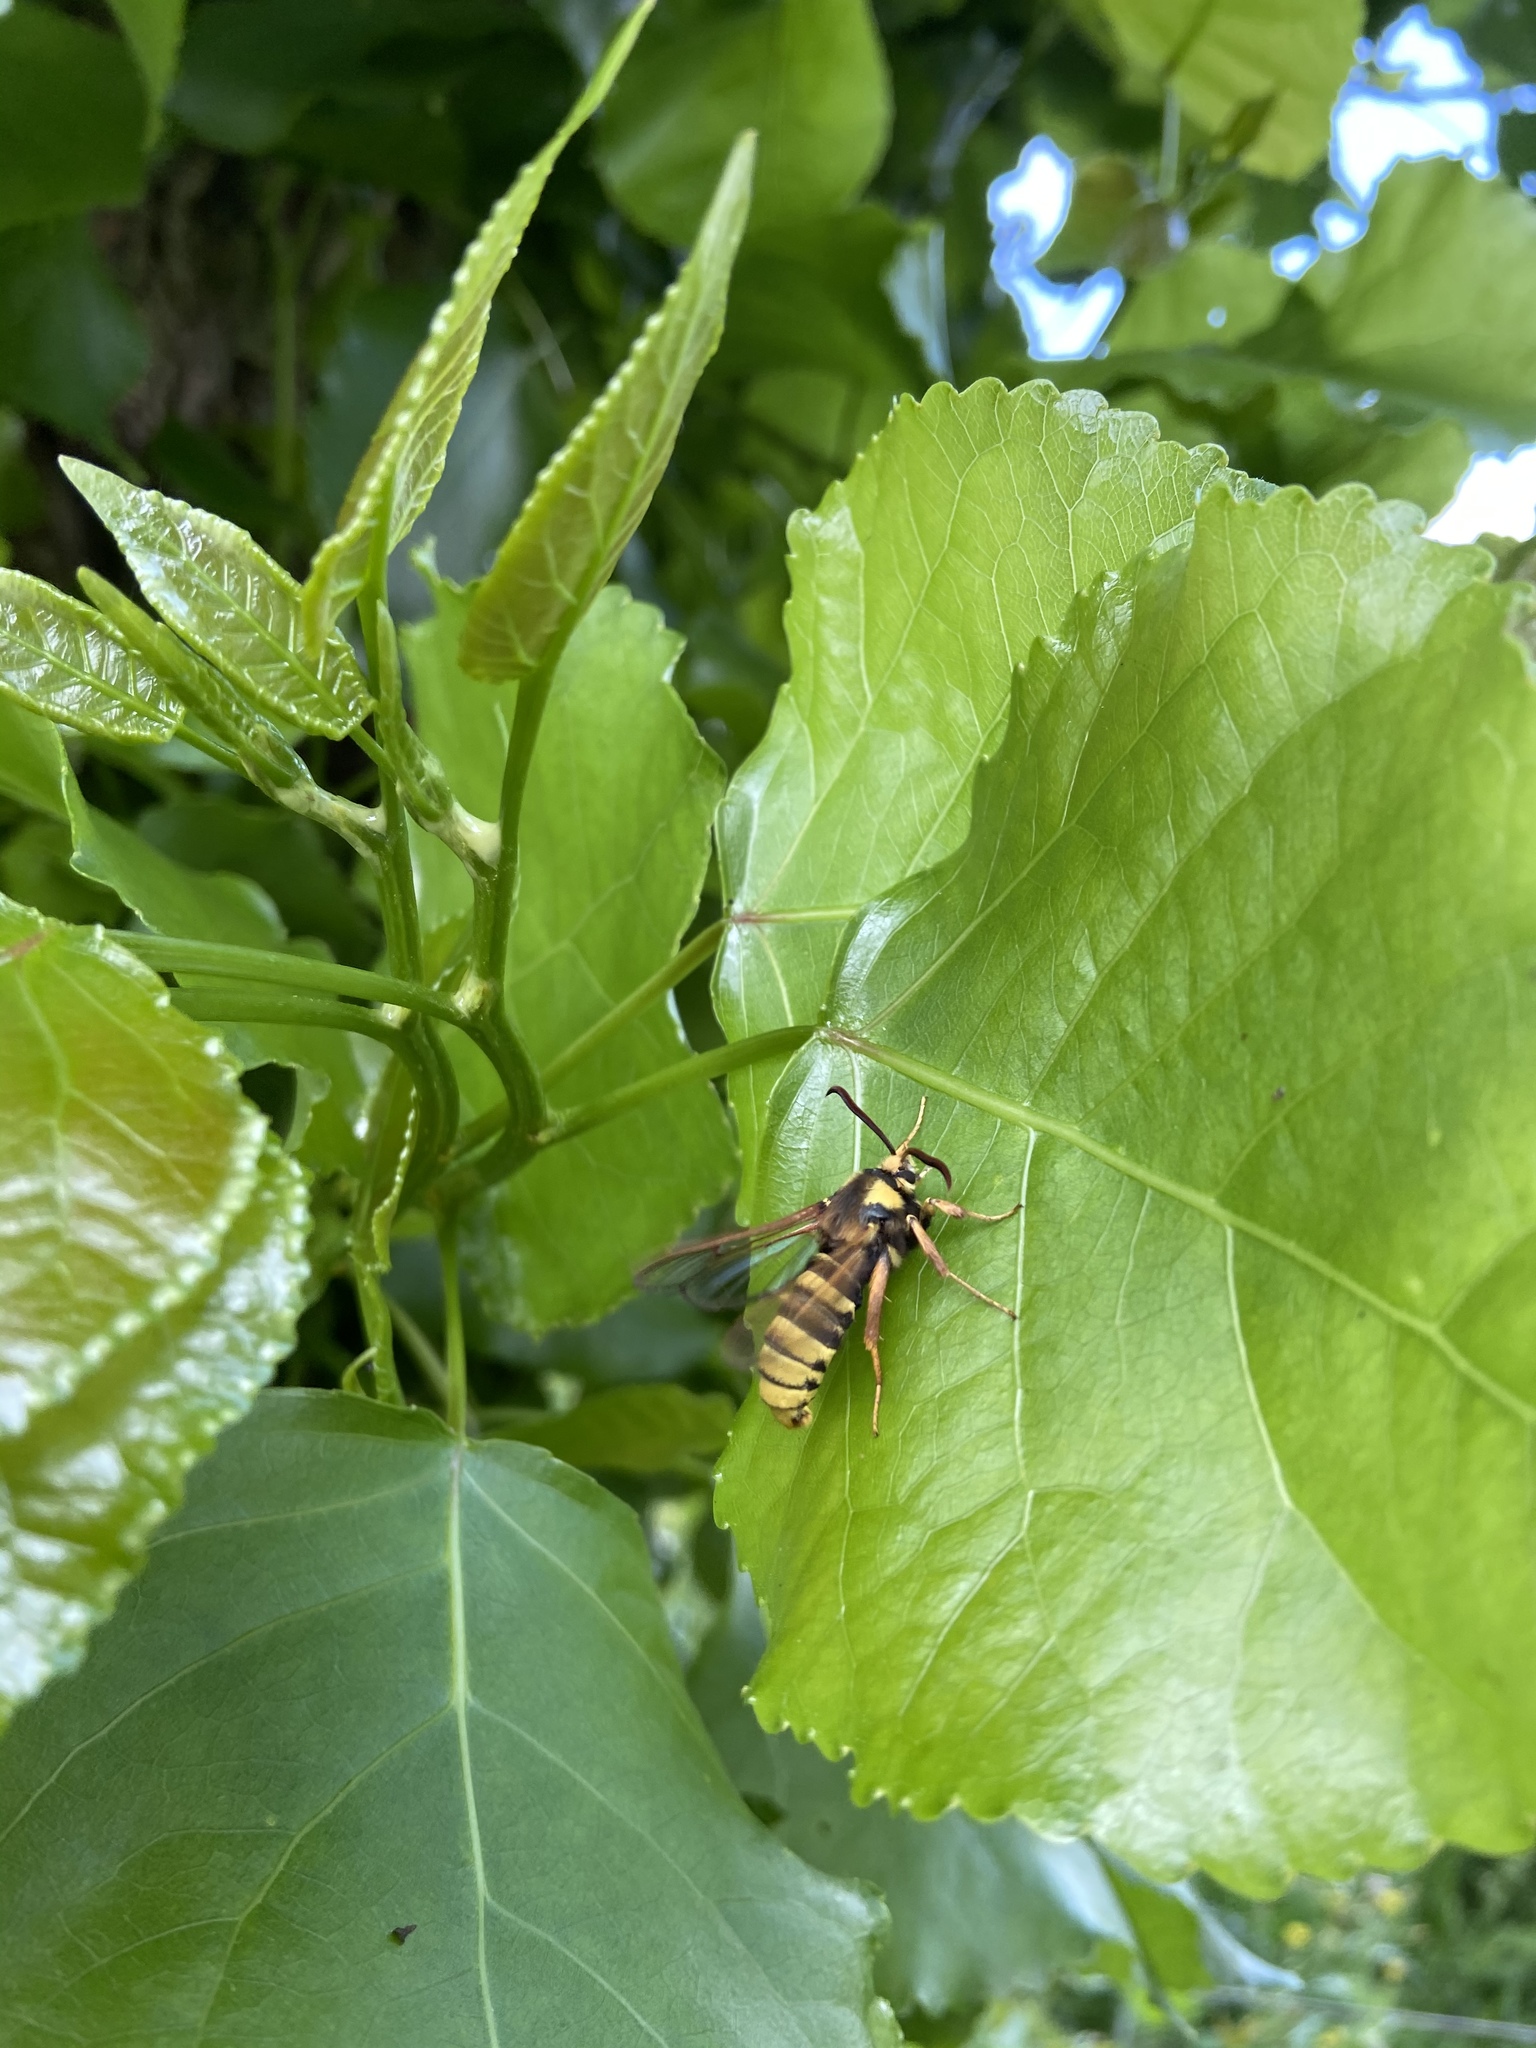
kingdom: Animalia
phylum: Arthropoda
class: Insecta
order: Lepidoptera
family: Sesiidae
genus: Sesia
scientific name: Sesia apiformis
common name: Hornet moth
